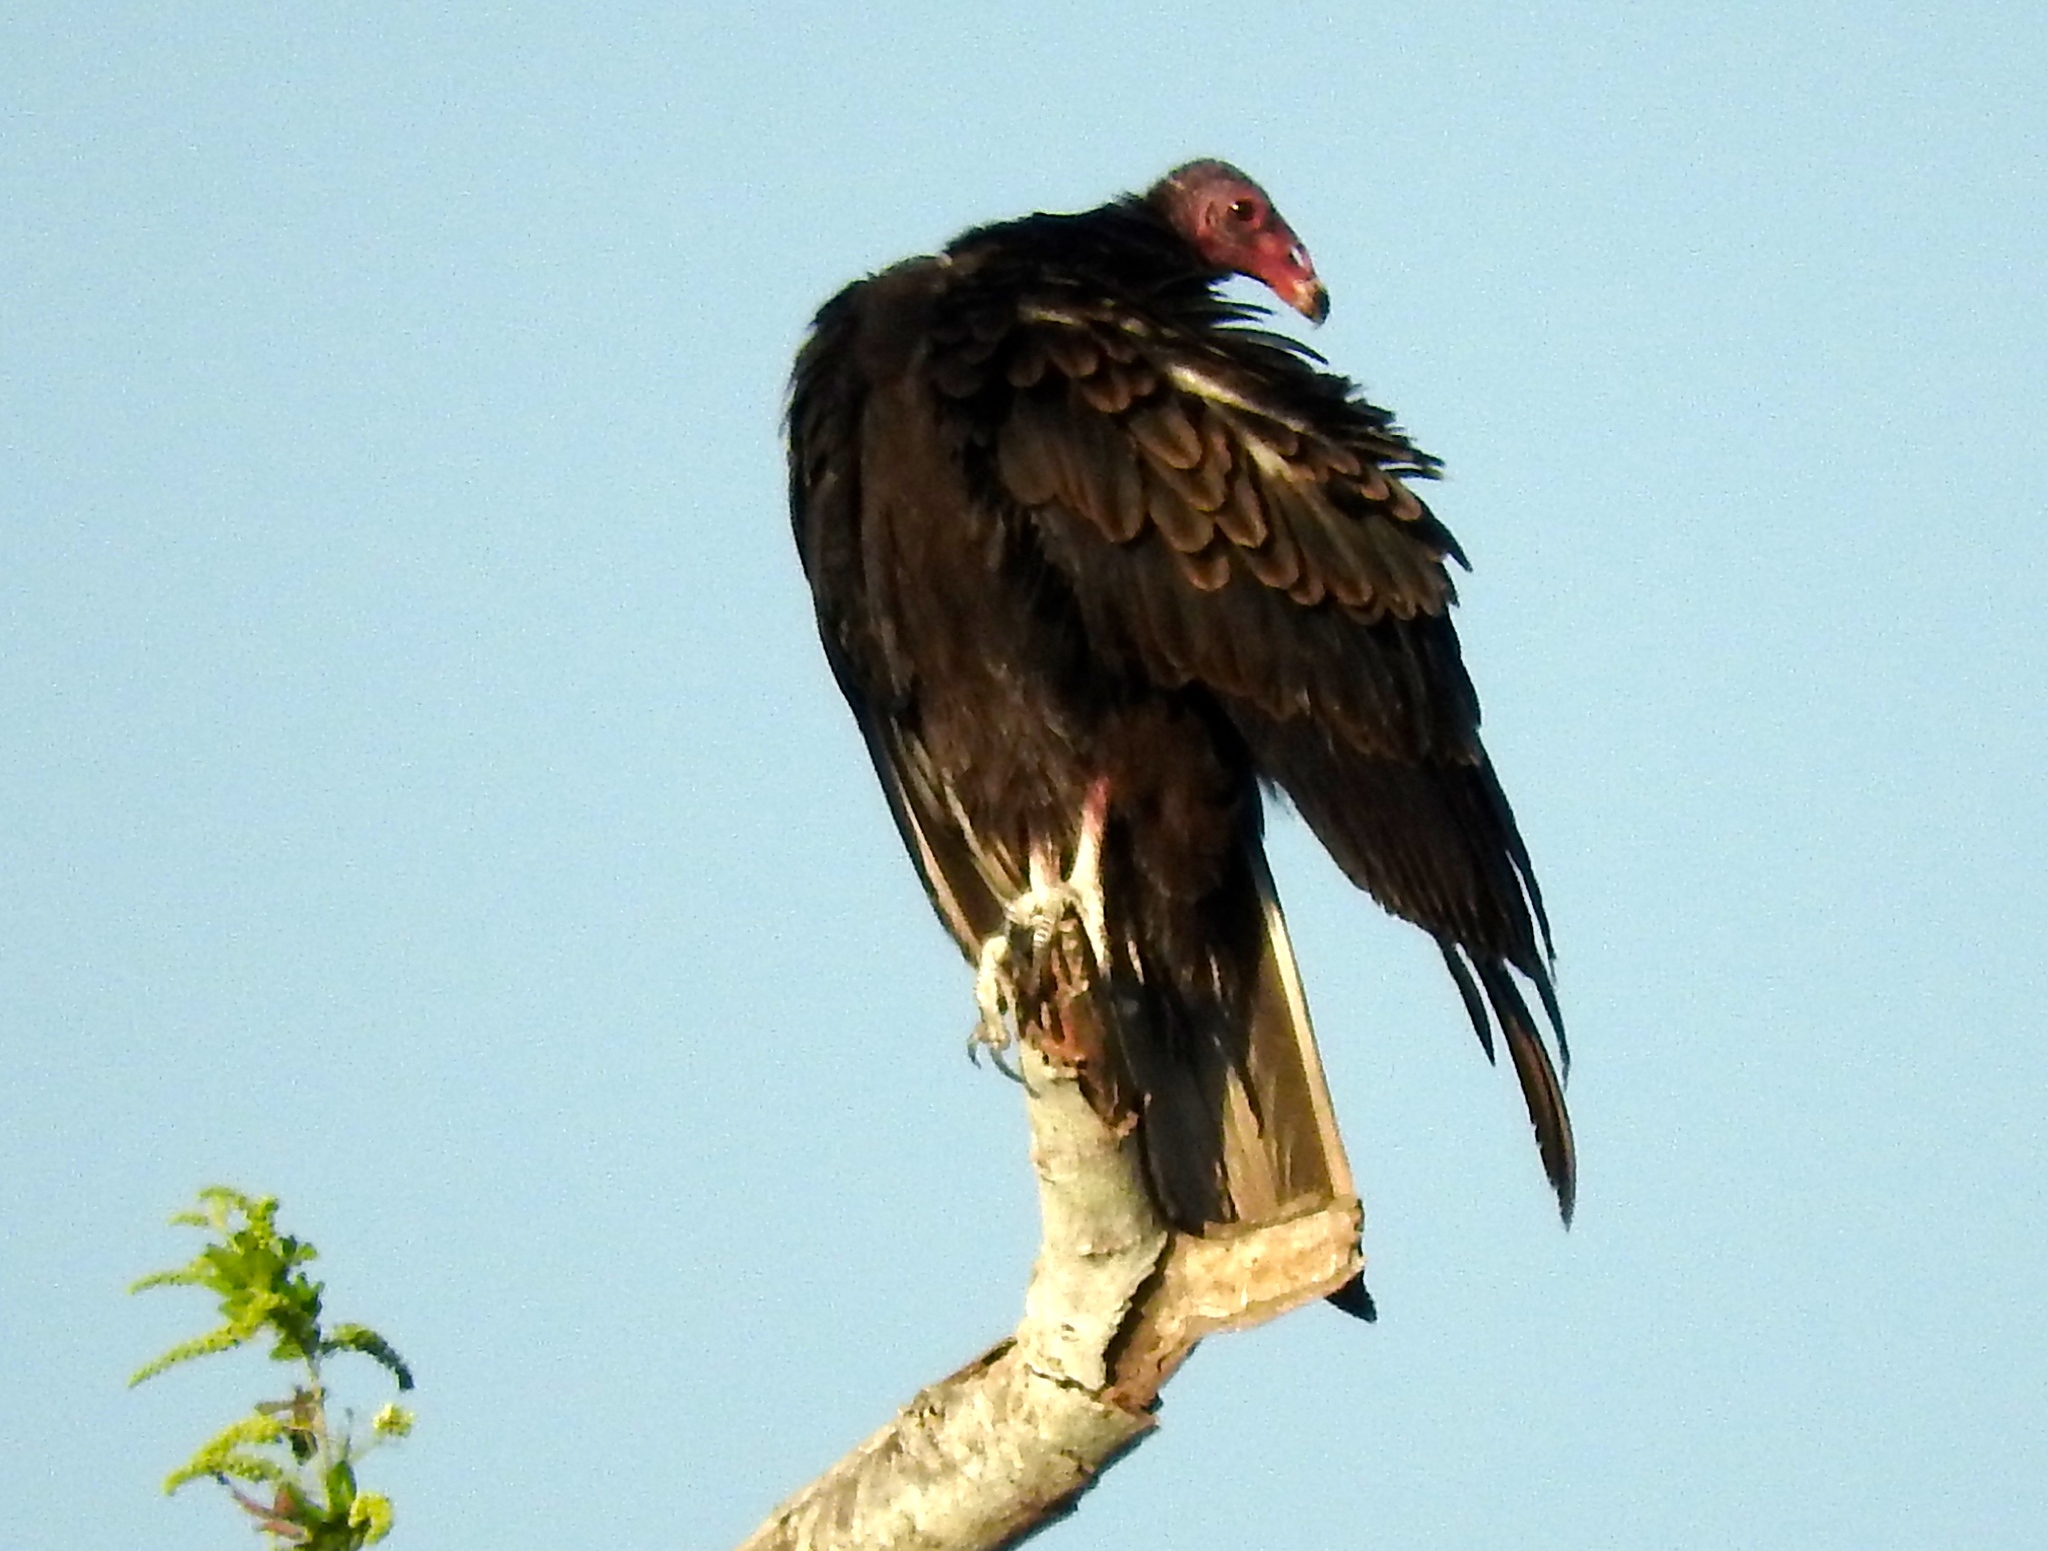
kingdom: Animalia
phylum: Chordata
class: Aves
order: Accipitriformes
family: Cathartidae
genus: Cathartes
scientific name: Cathartes aura
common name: Turkey vulture
